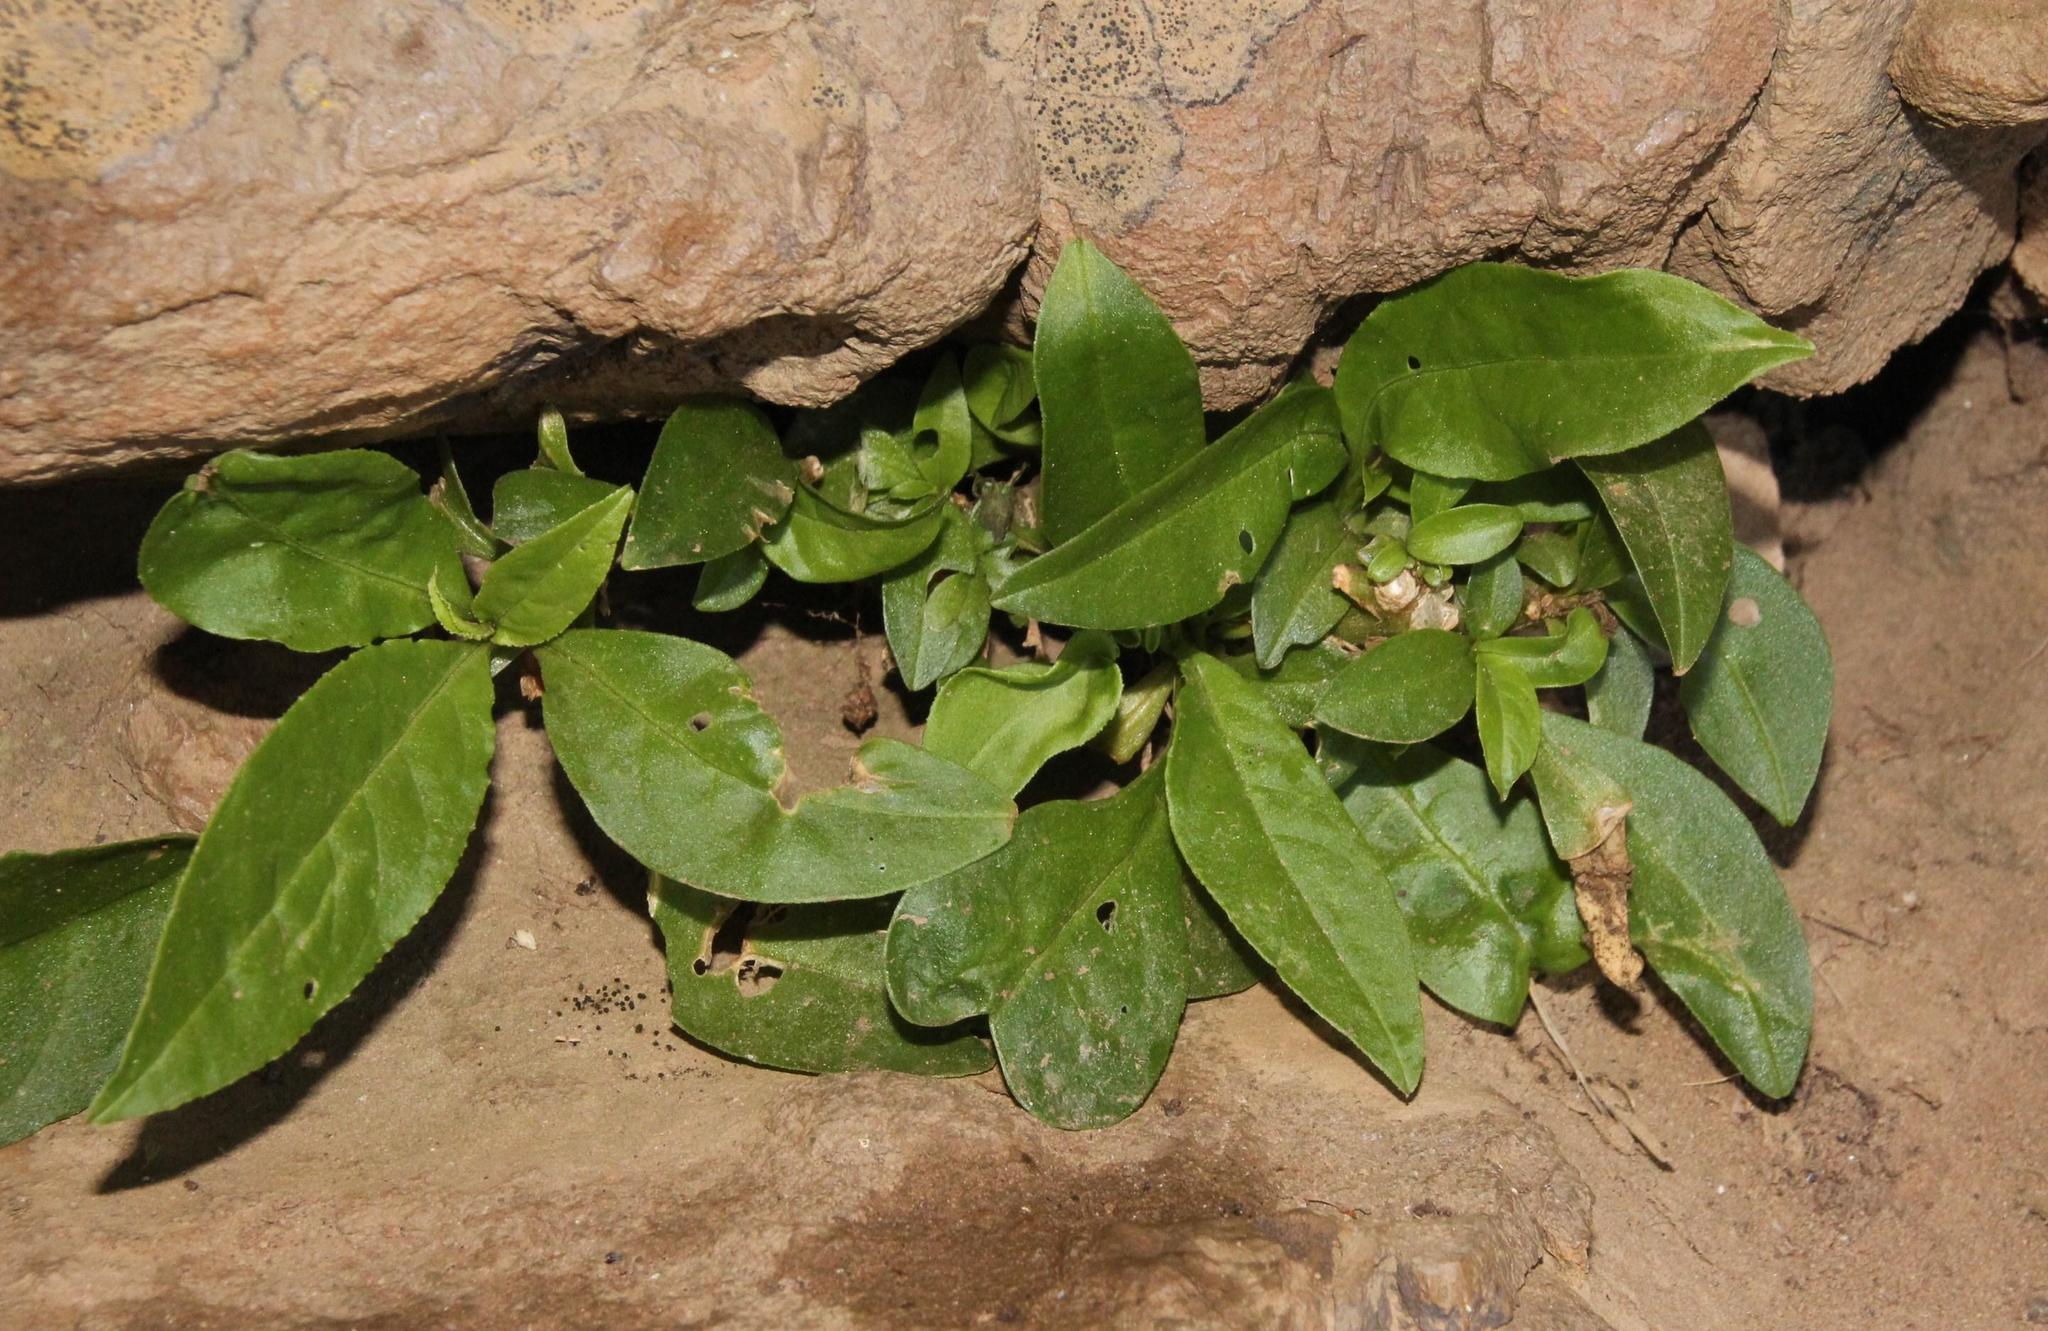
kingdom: Plantae
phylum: Tracheophyta
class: Magnoliopsida
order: Lamiales
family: Scrophulariaceae
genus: Teedia
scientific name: Teedia lucida
